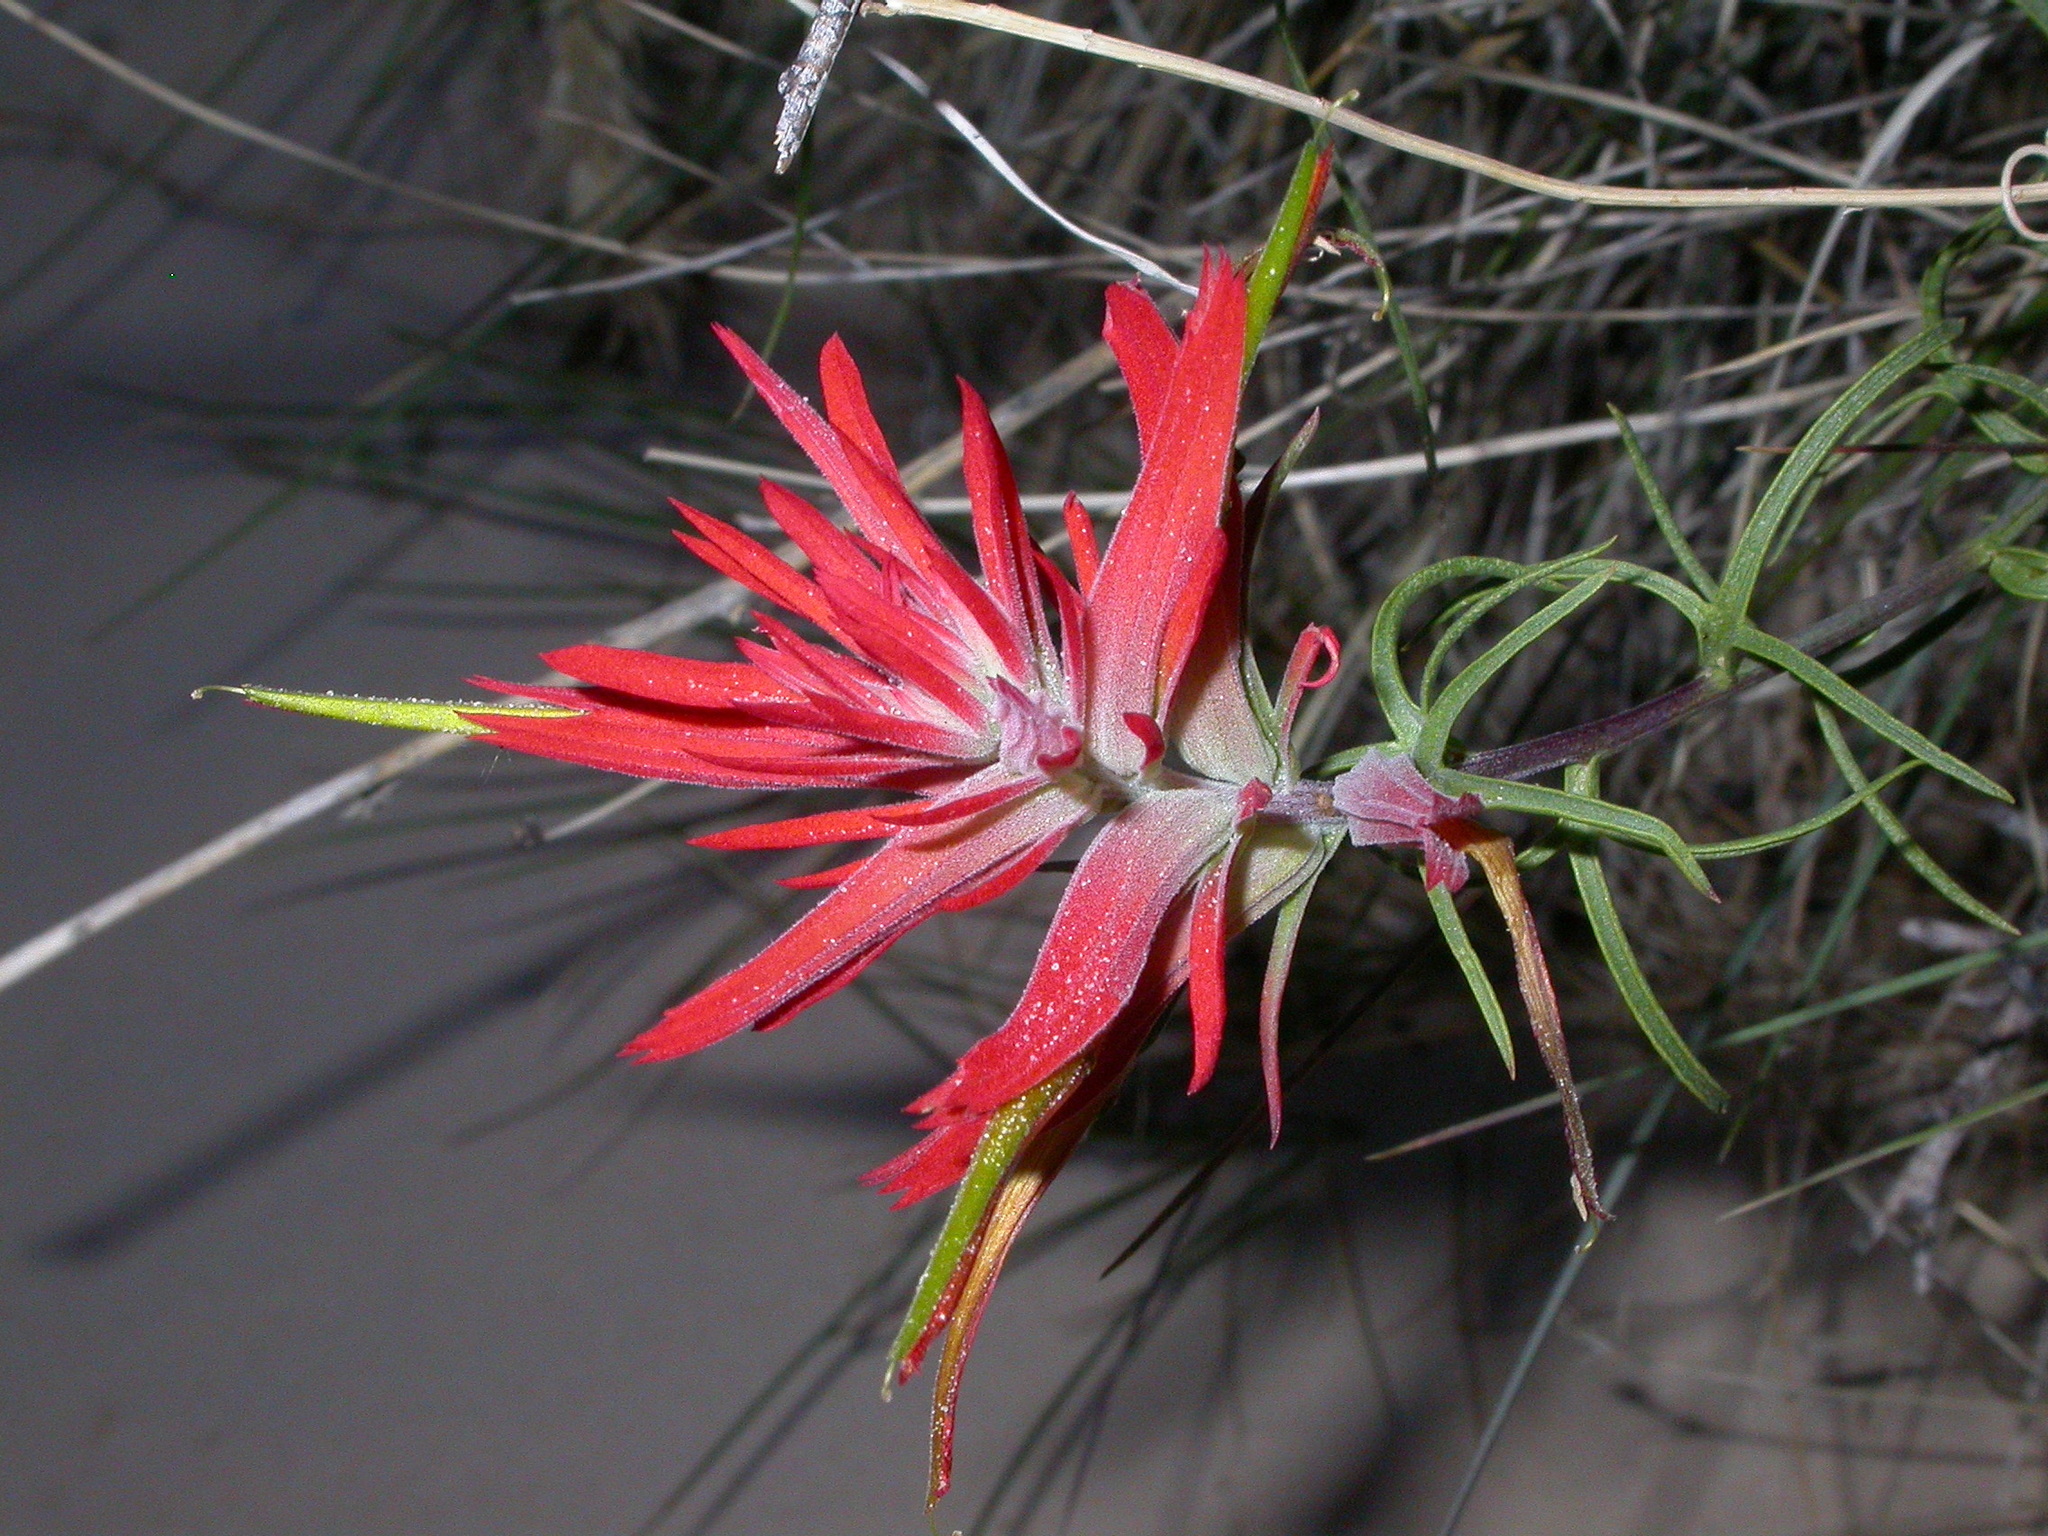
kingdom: Plantae
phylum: Tracheophyta
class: Magnoliopsida
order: Lamiales
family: Orobanchaceae
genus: Castilleja
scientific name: Castilleja linariifolia
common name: Wyoming paintbrush
